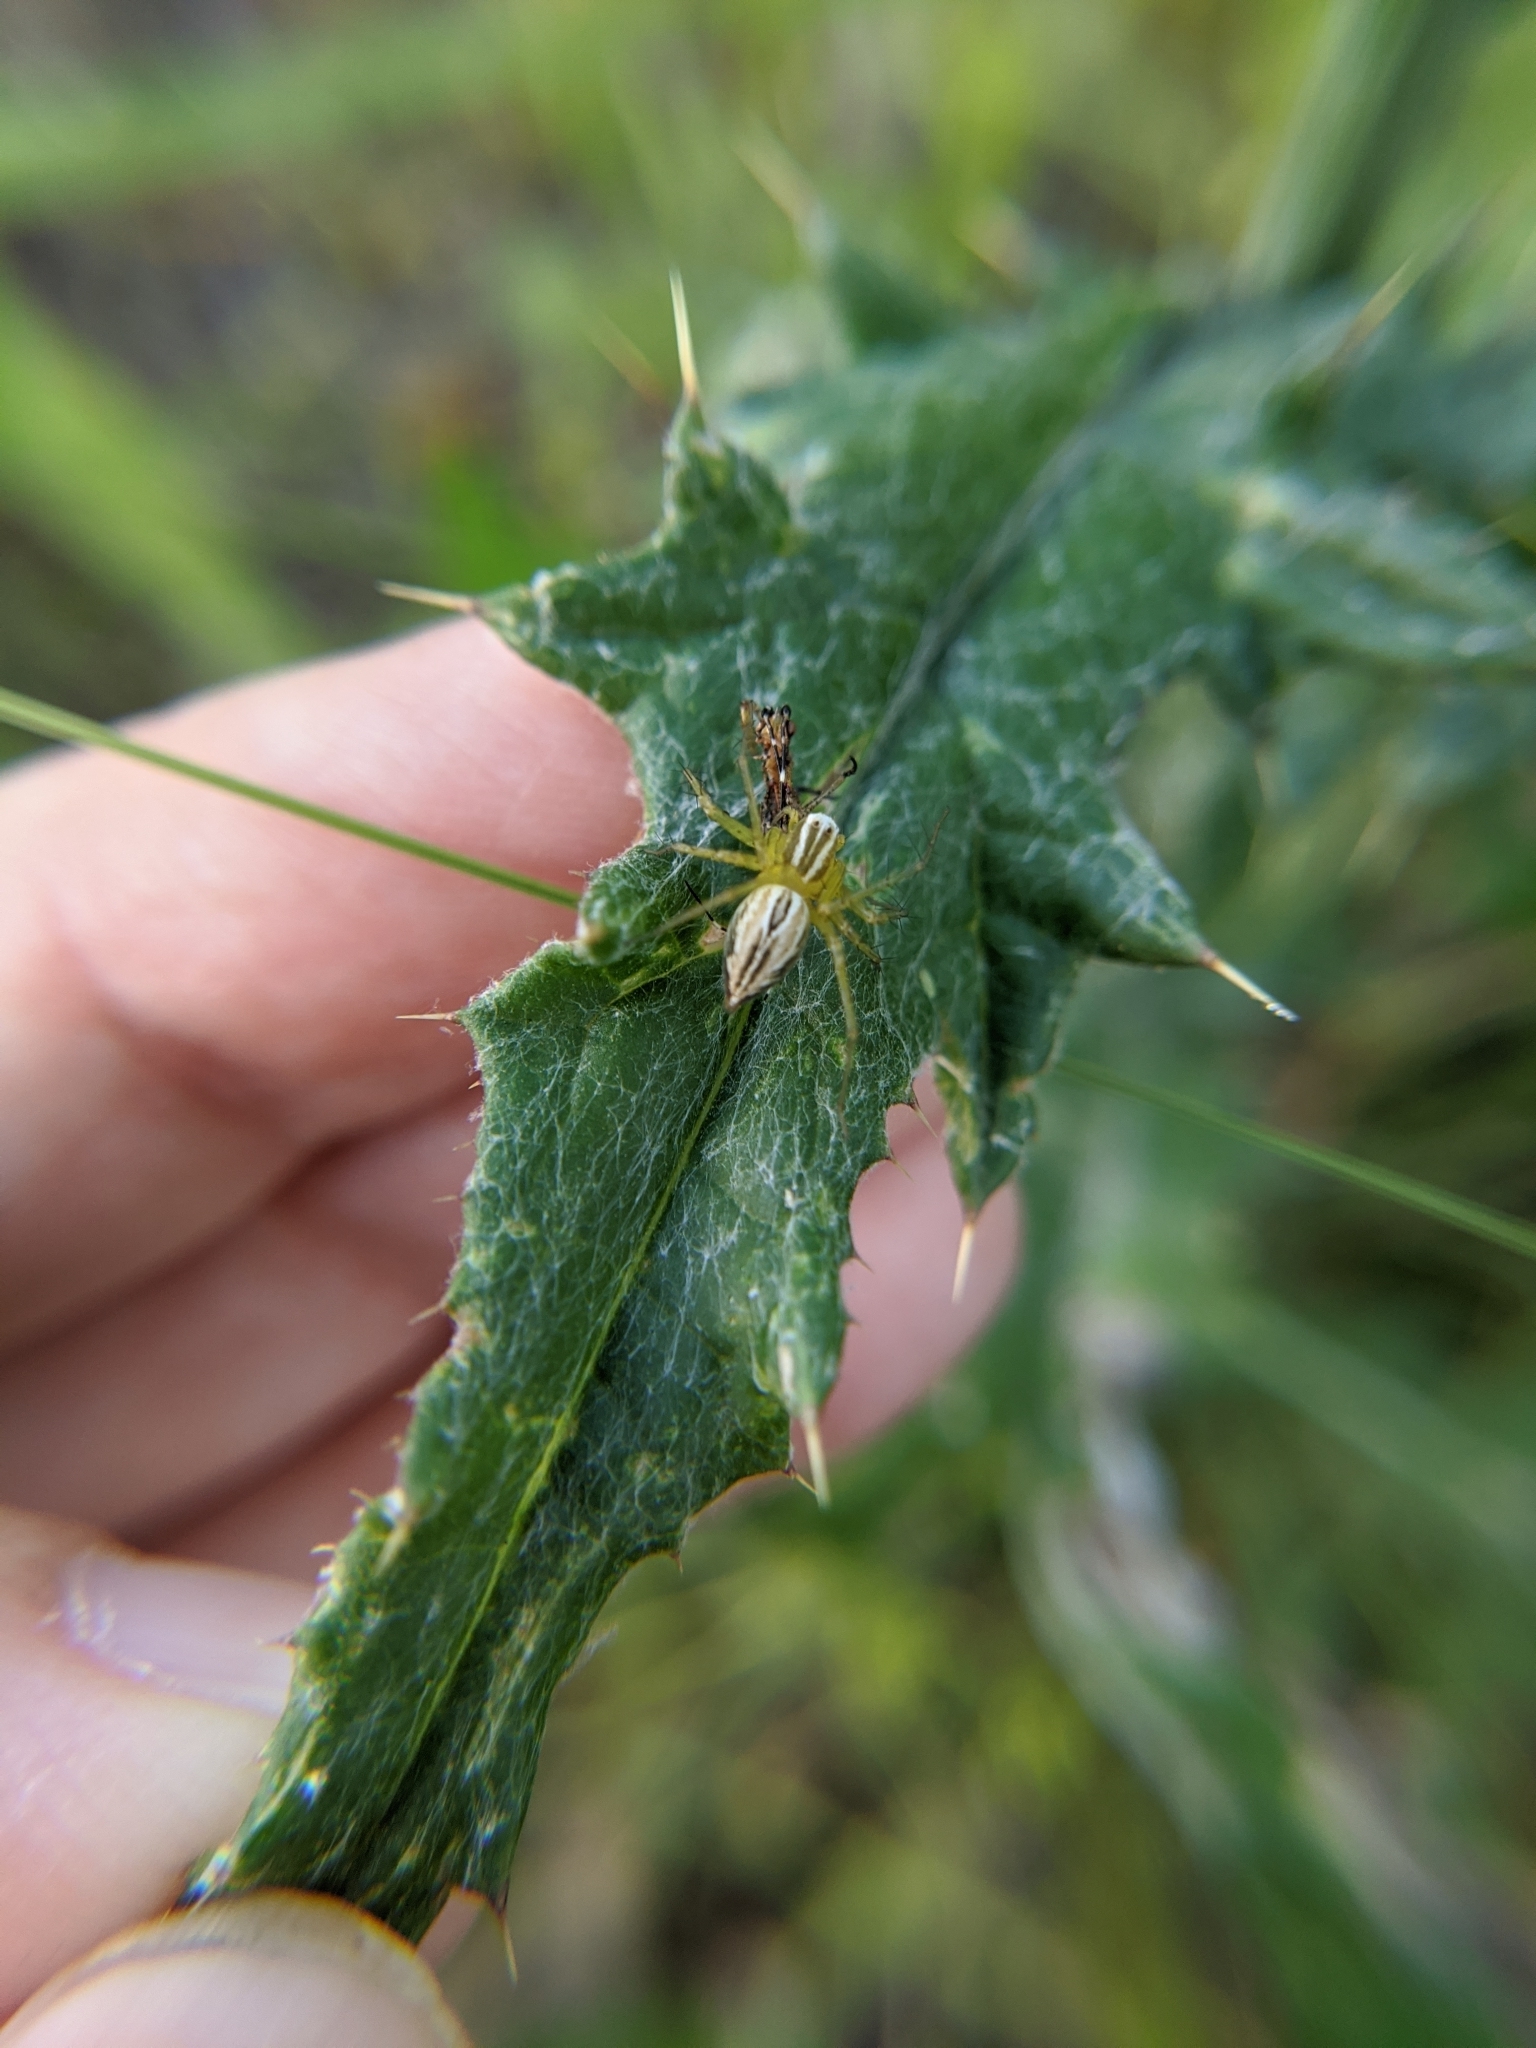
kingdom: Animalia
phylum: Arthropoda
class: Arachnida
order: Araneae
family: Oxyopidae
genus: Oxyopes
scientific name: Oxyopes salticus
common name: Lynx spiders
